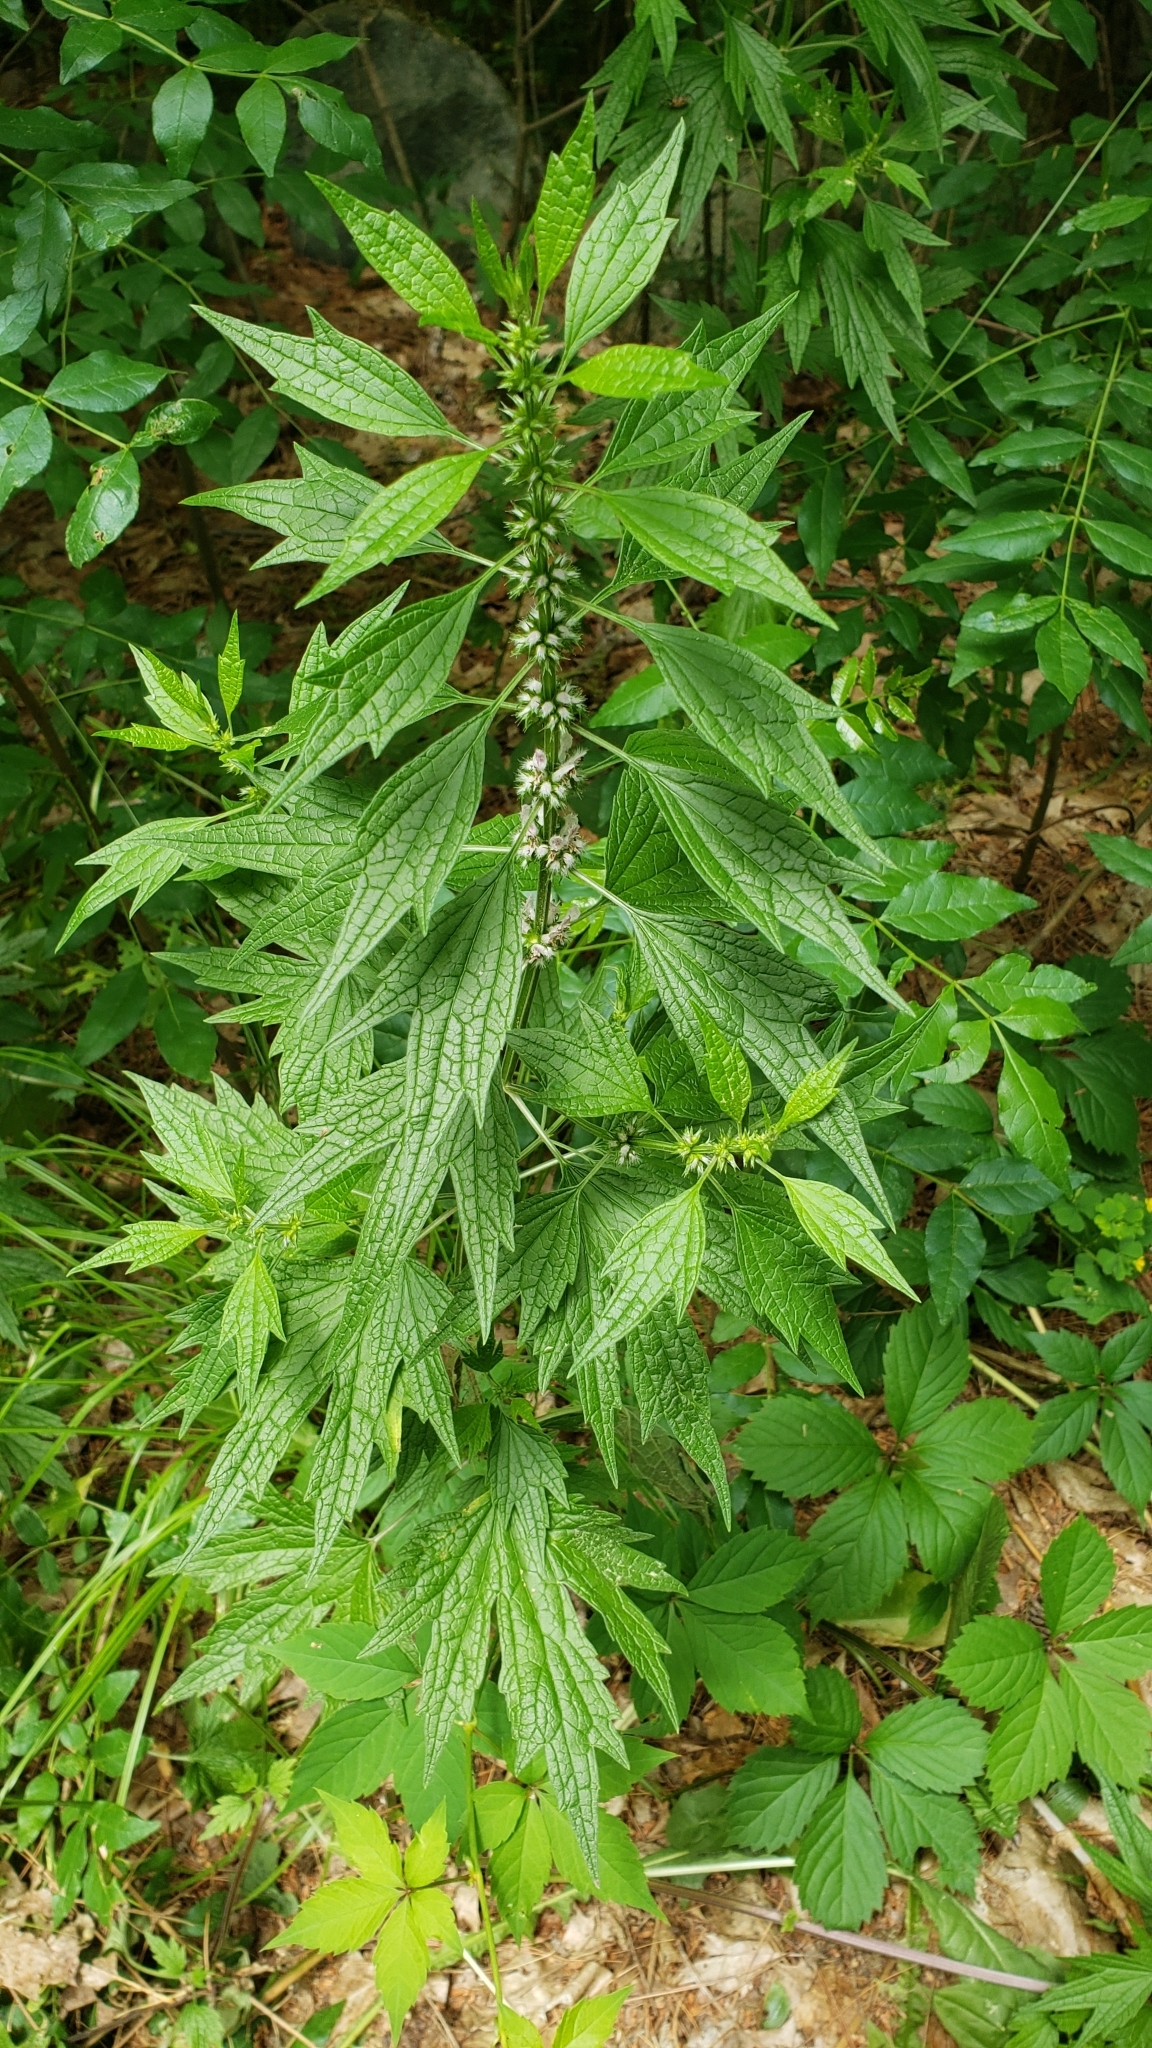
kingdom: Plantae
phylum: Tracheophyta
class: Magnoliopsida
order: Lamiales
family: Lamiaceae
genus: Leonurus
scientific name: Leonurus cardiaca
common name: Motherwort
